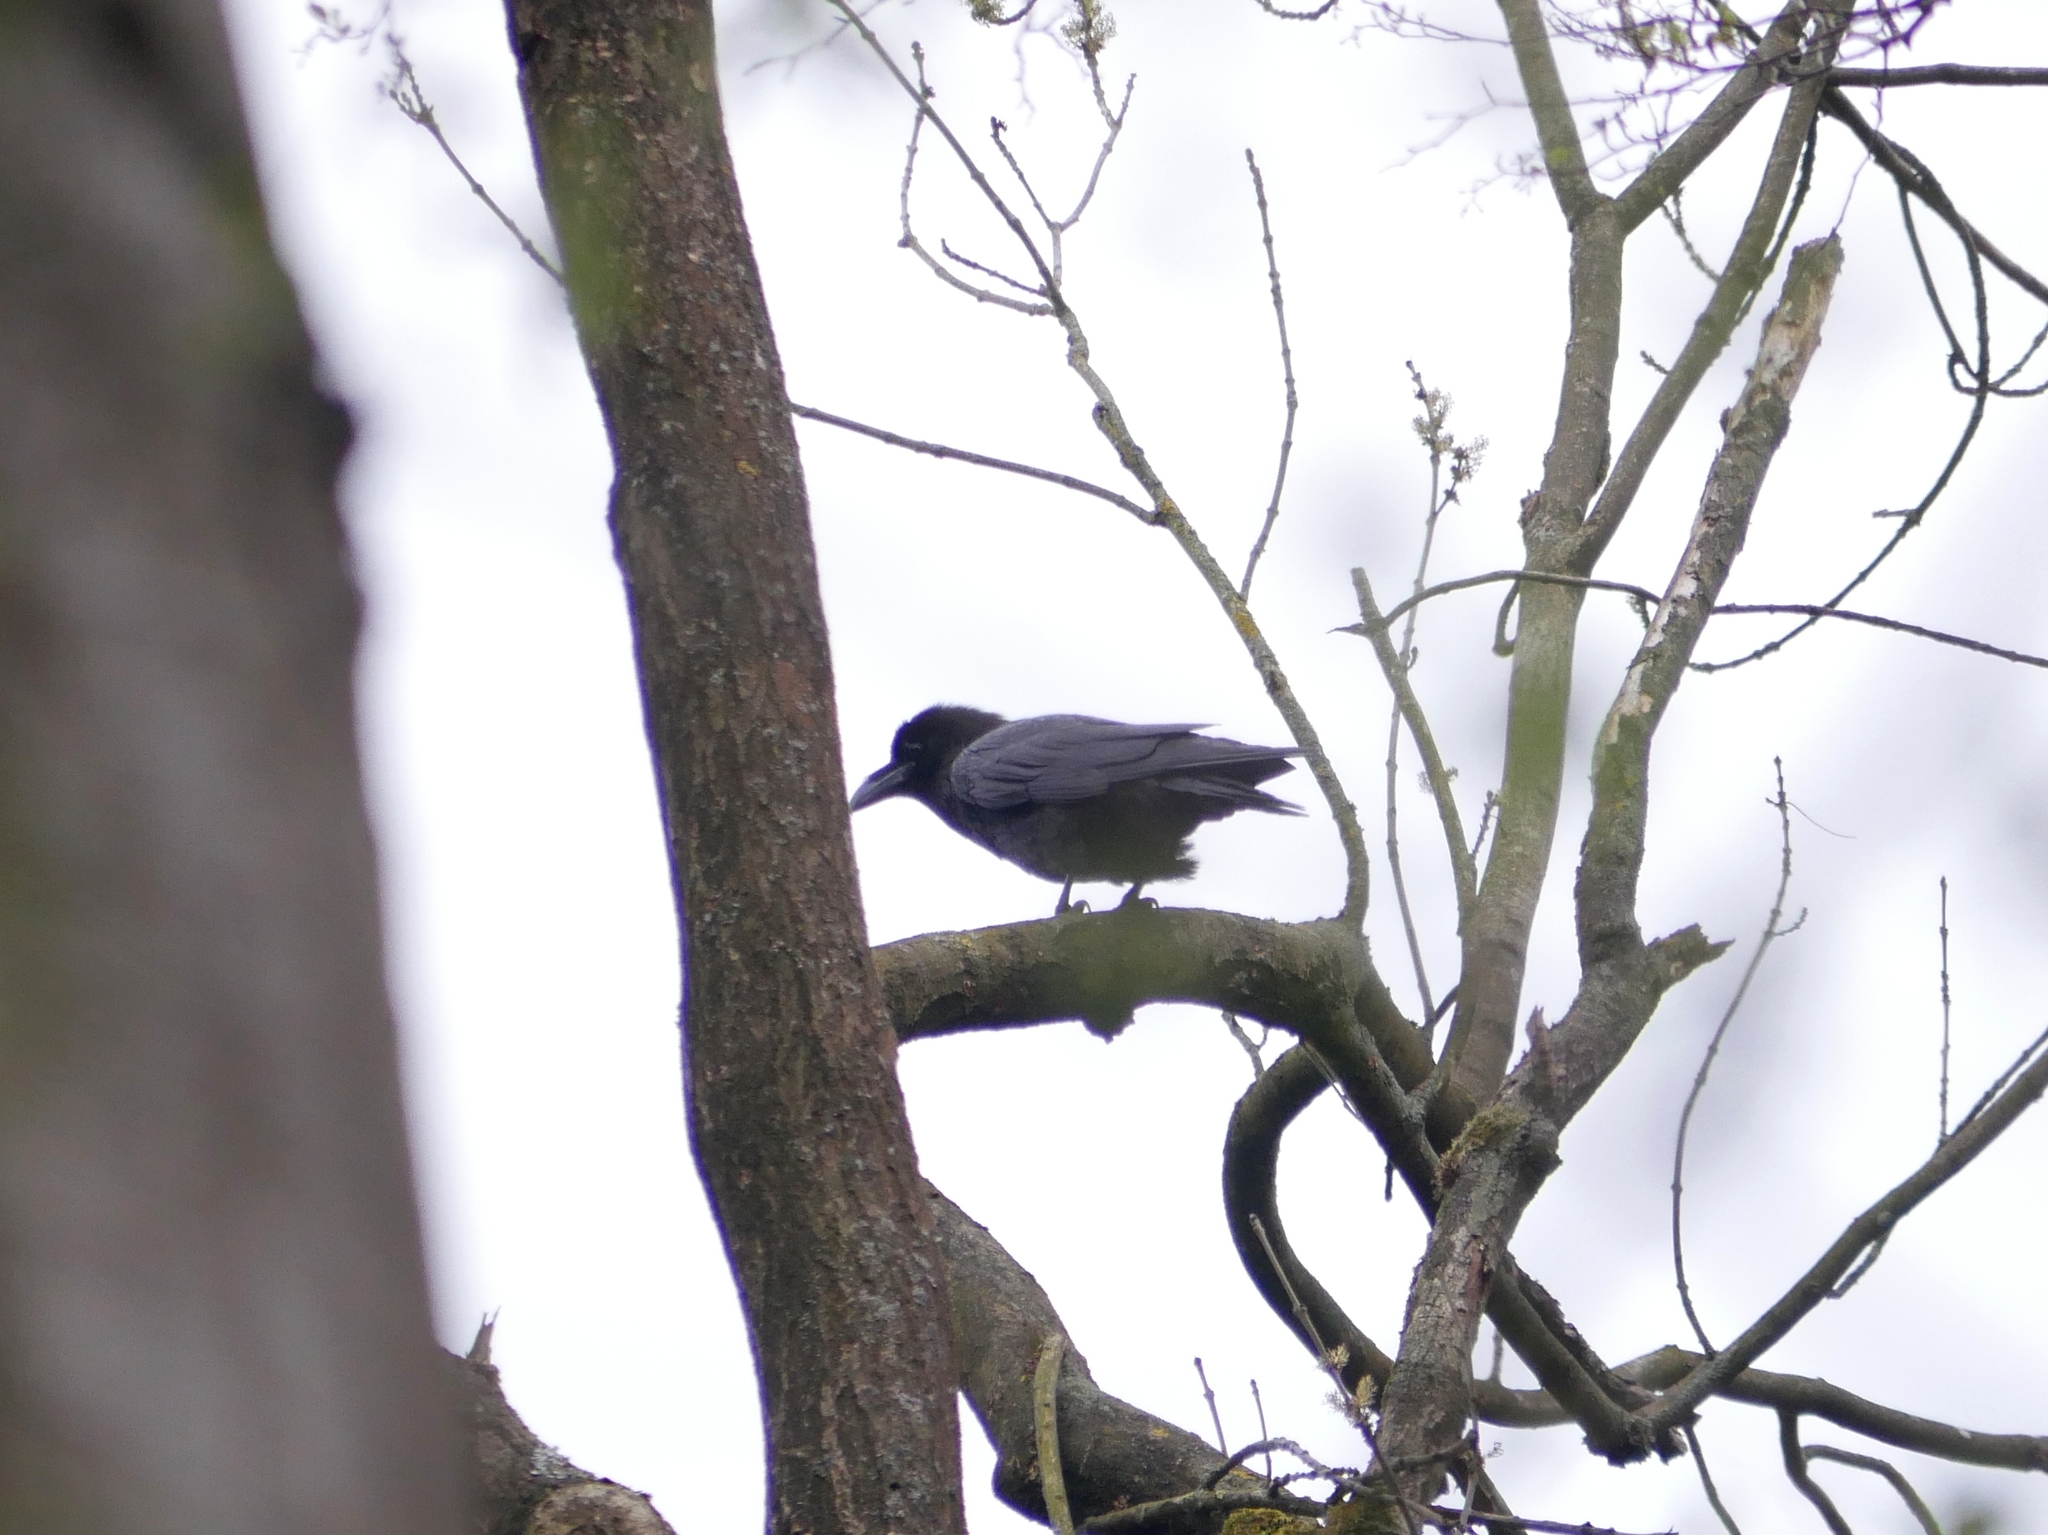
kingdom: Animalia
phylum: Chordata
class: Aves
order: Passeriformes
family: Corvidae
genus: Corvus
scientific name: Corvus corax
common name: Common raven
